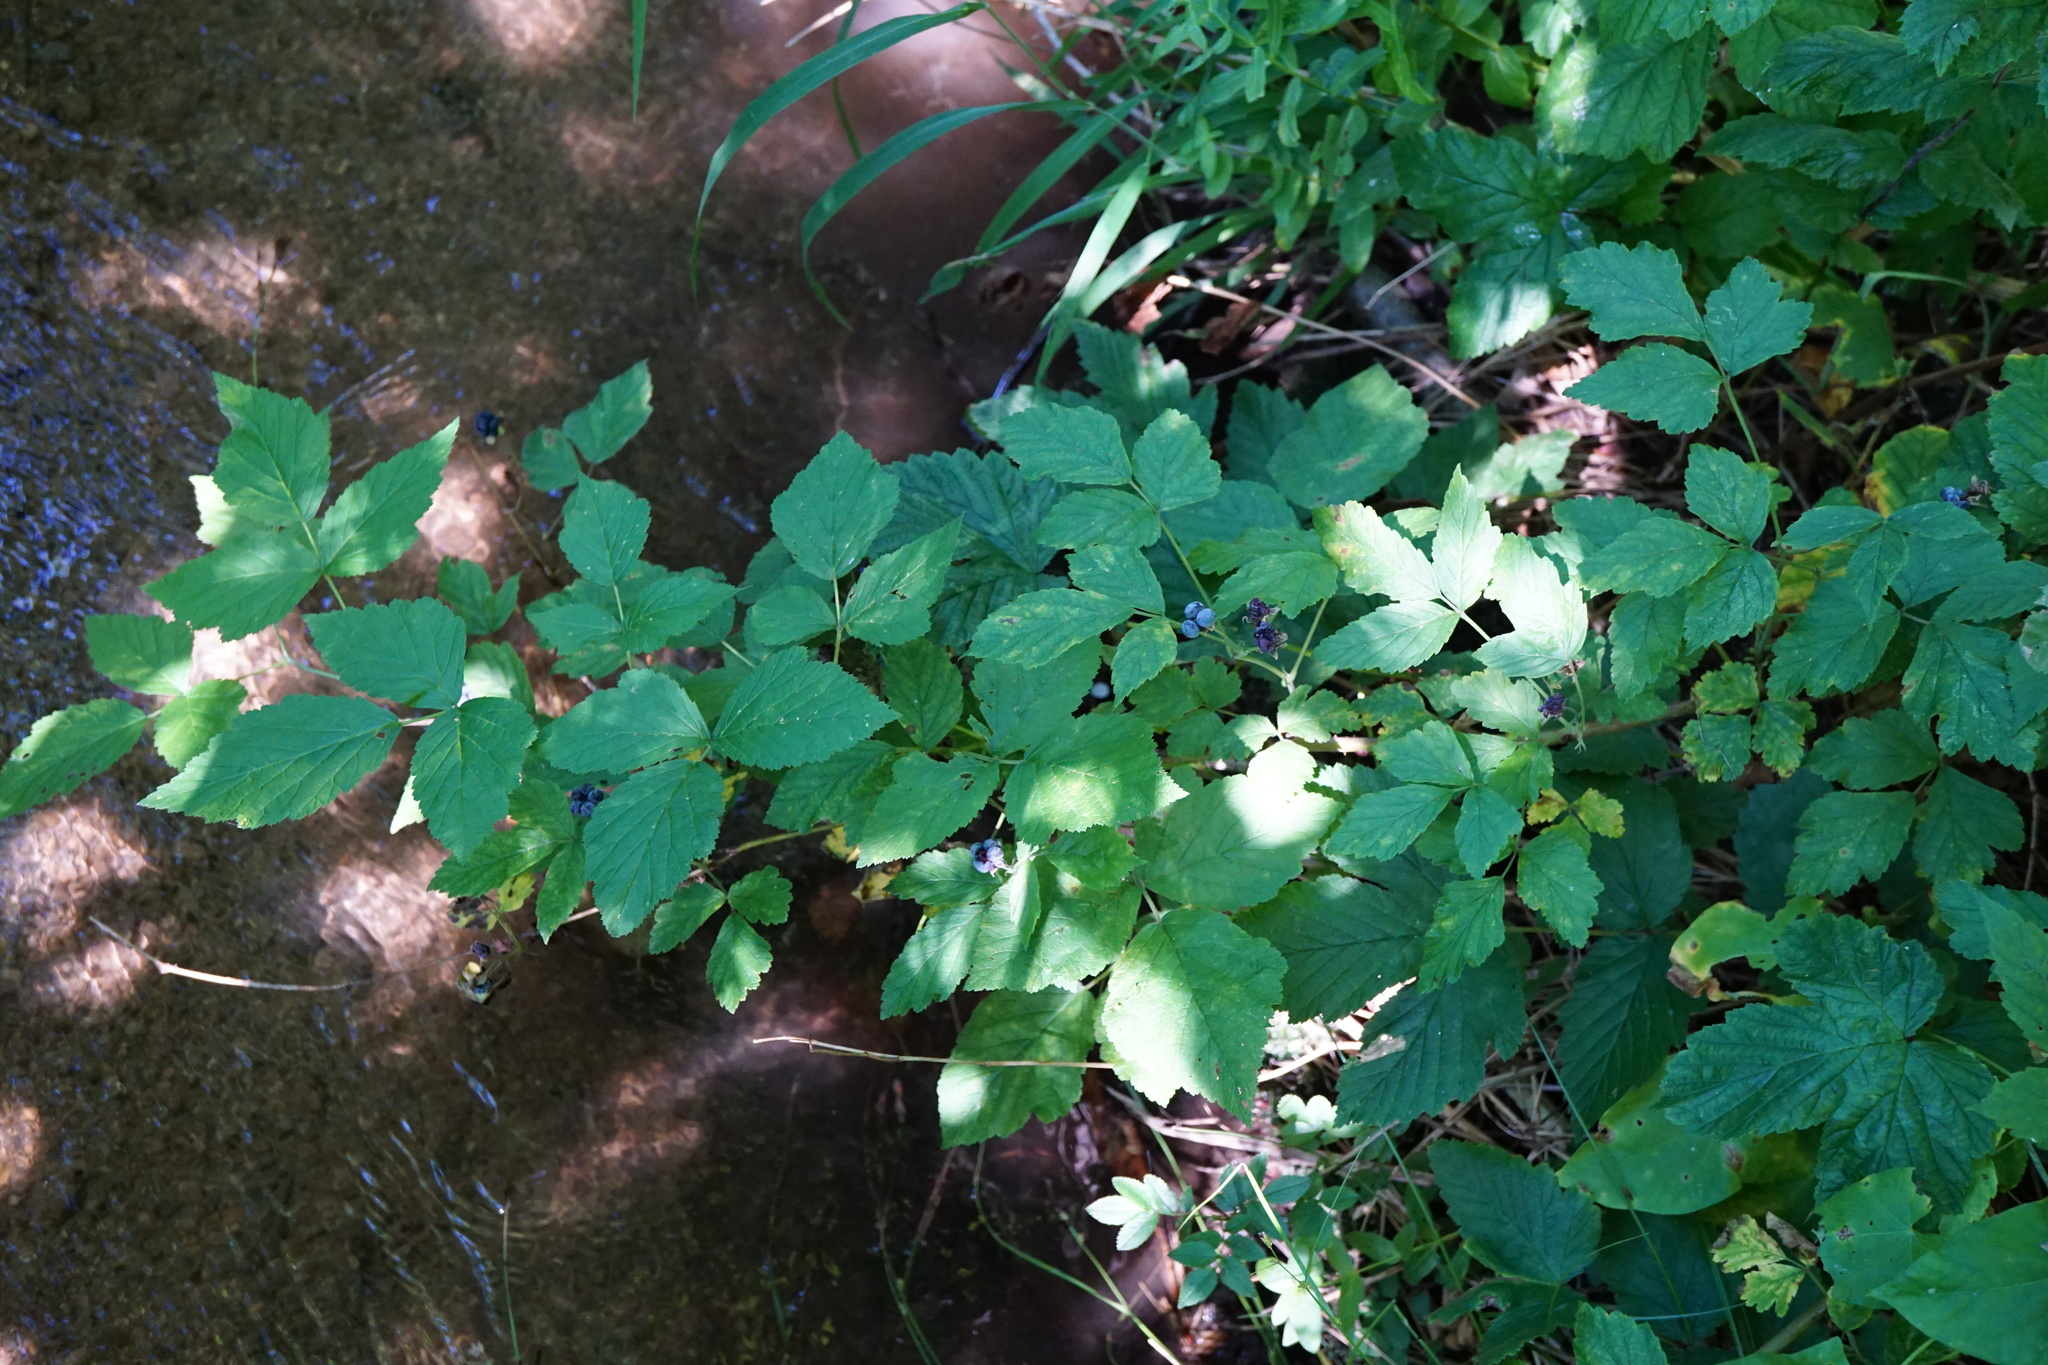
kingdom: Plantae
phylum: Tracheophyta
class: Magnoliopsida
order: Rosales
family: Rosaceae
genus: Rubus
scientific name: Rubus caesius
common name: Dewberry
